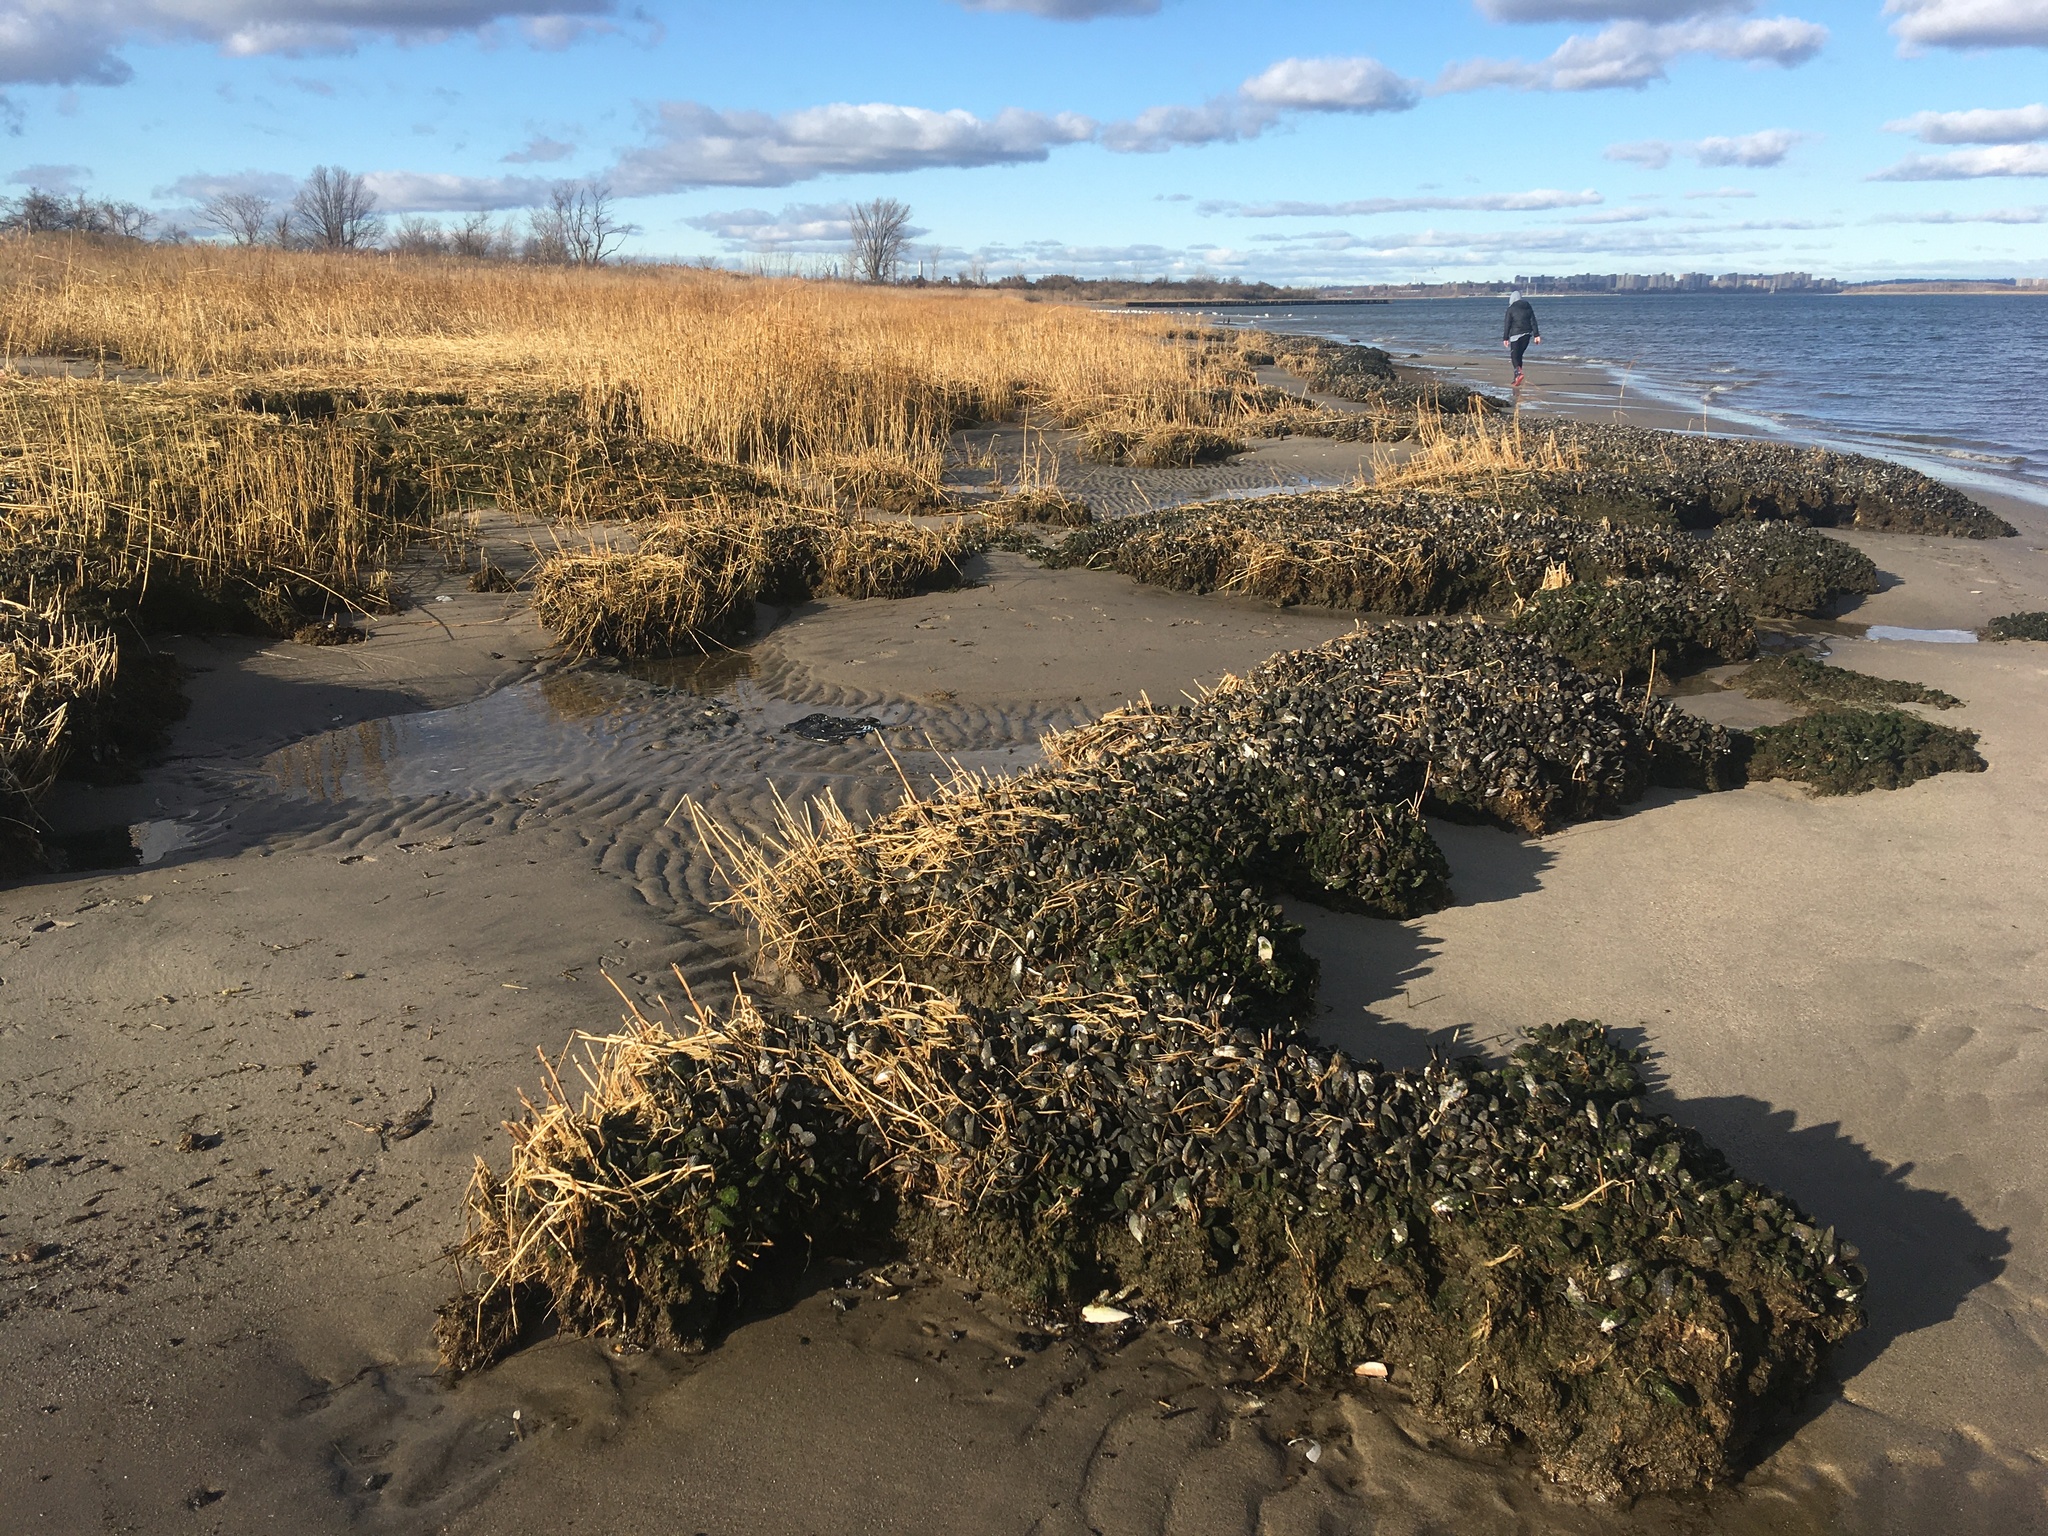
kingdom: Animalia
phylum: Mollusca
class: Bivalvia
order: Mytilida
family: Mytilidae
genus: Geukensia
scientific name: Geukensia demissa
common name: Ribbed mussel
